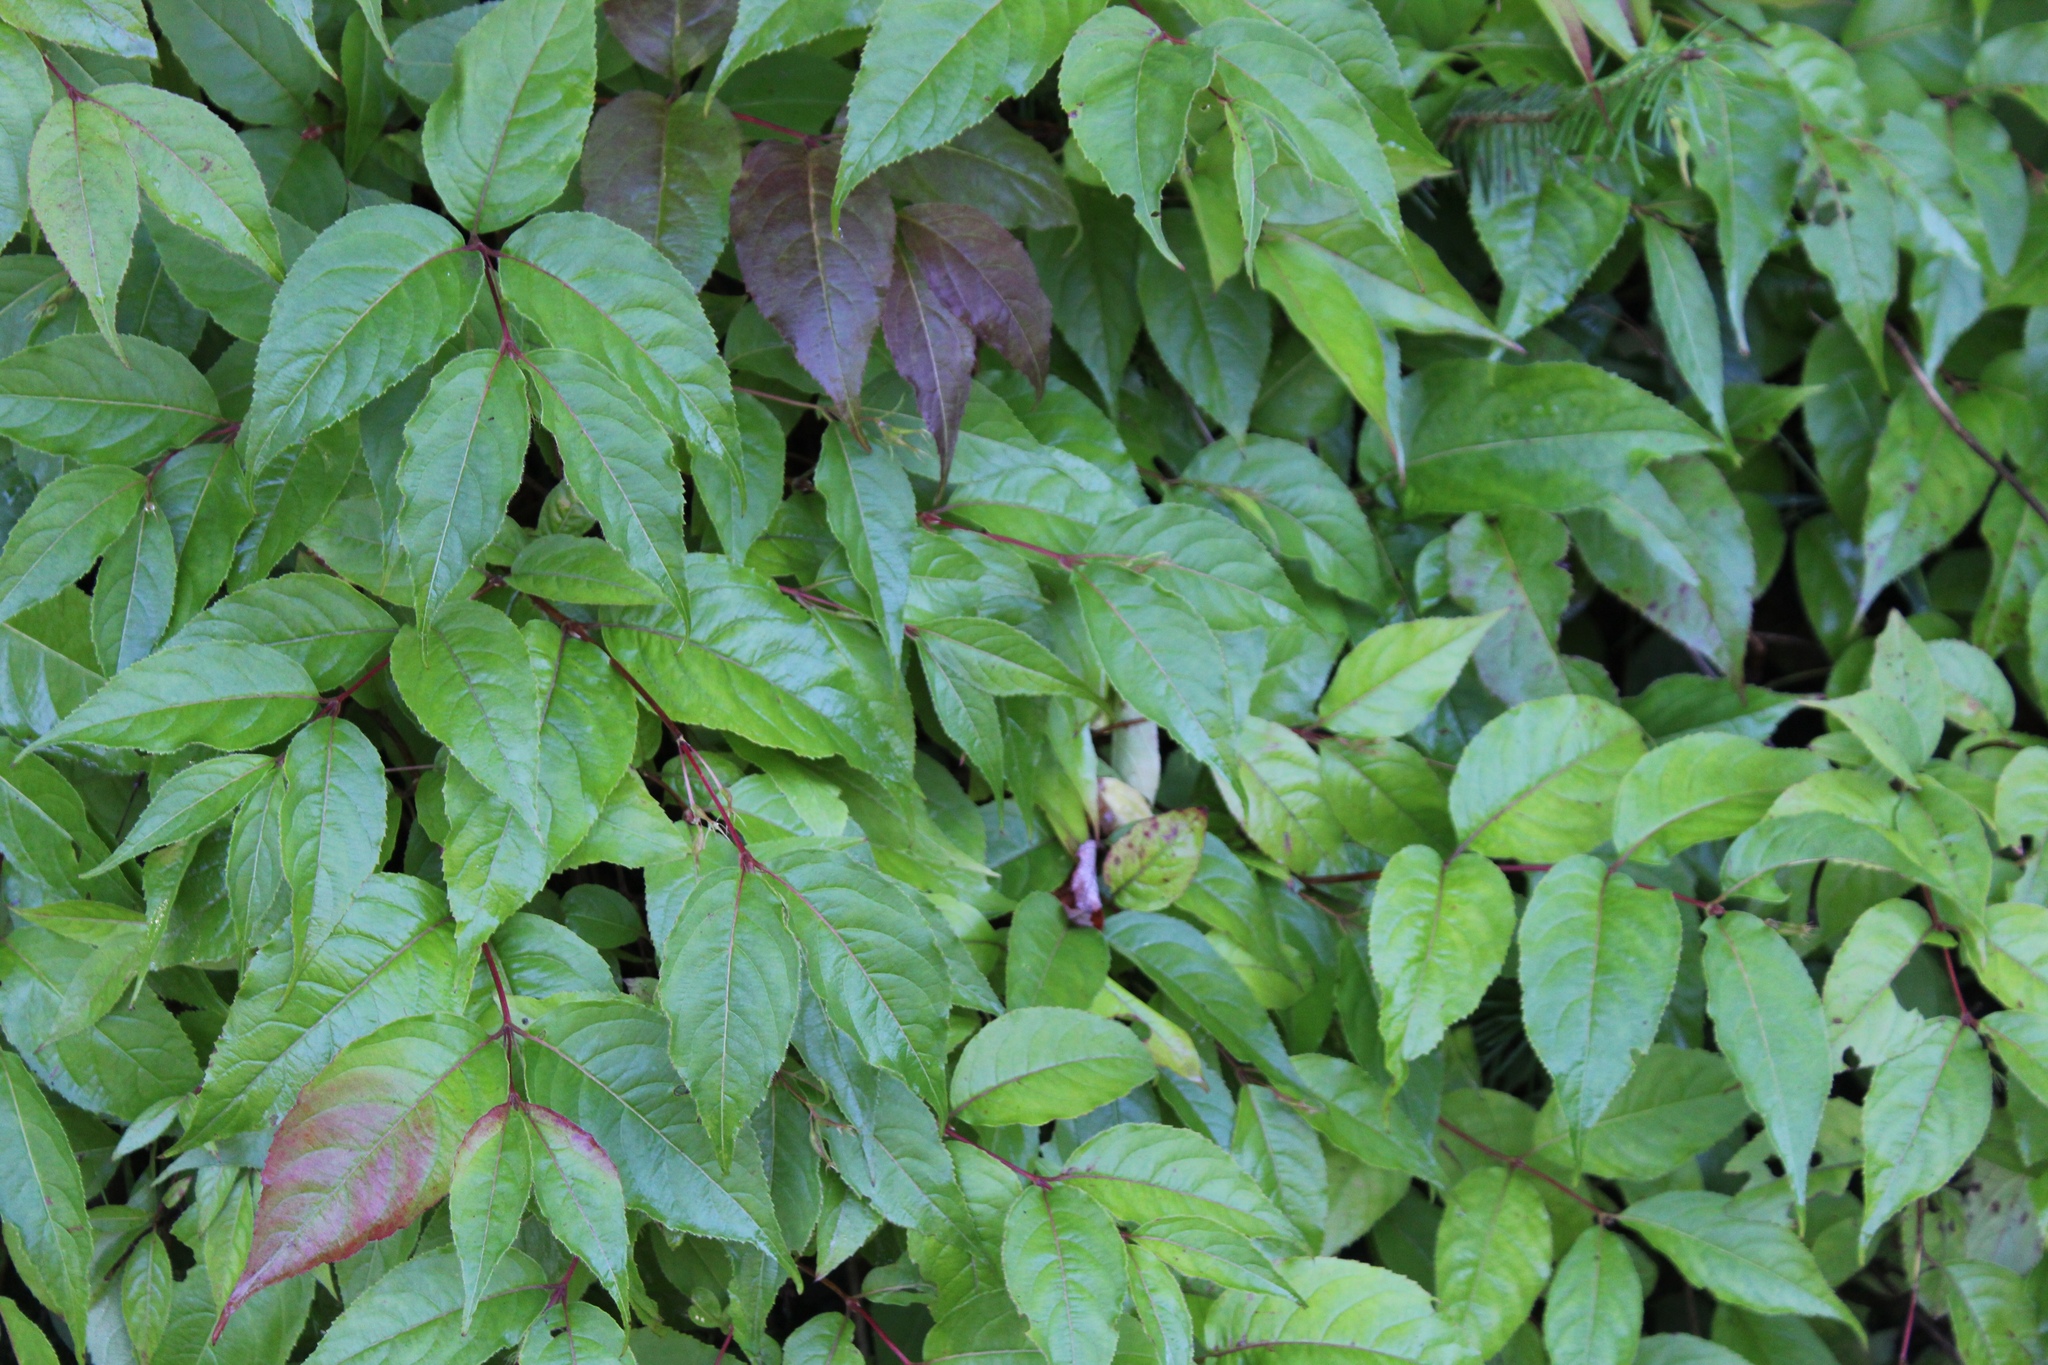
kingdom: Plantae
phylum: Tracheophyta
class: Magnoliopsida
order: Dipsacales
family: Caprifoliaceae
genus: Diervilla
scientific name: Diervilla lonicera
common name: Bush-honeysuckle
